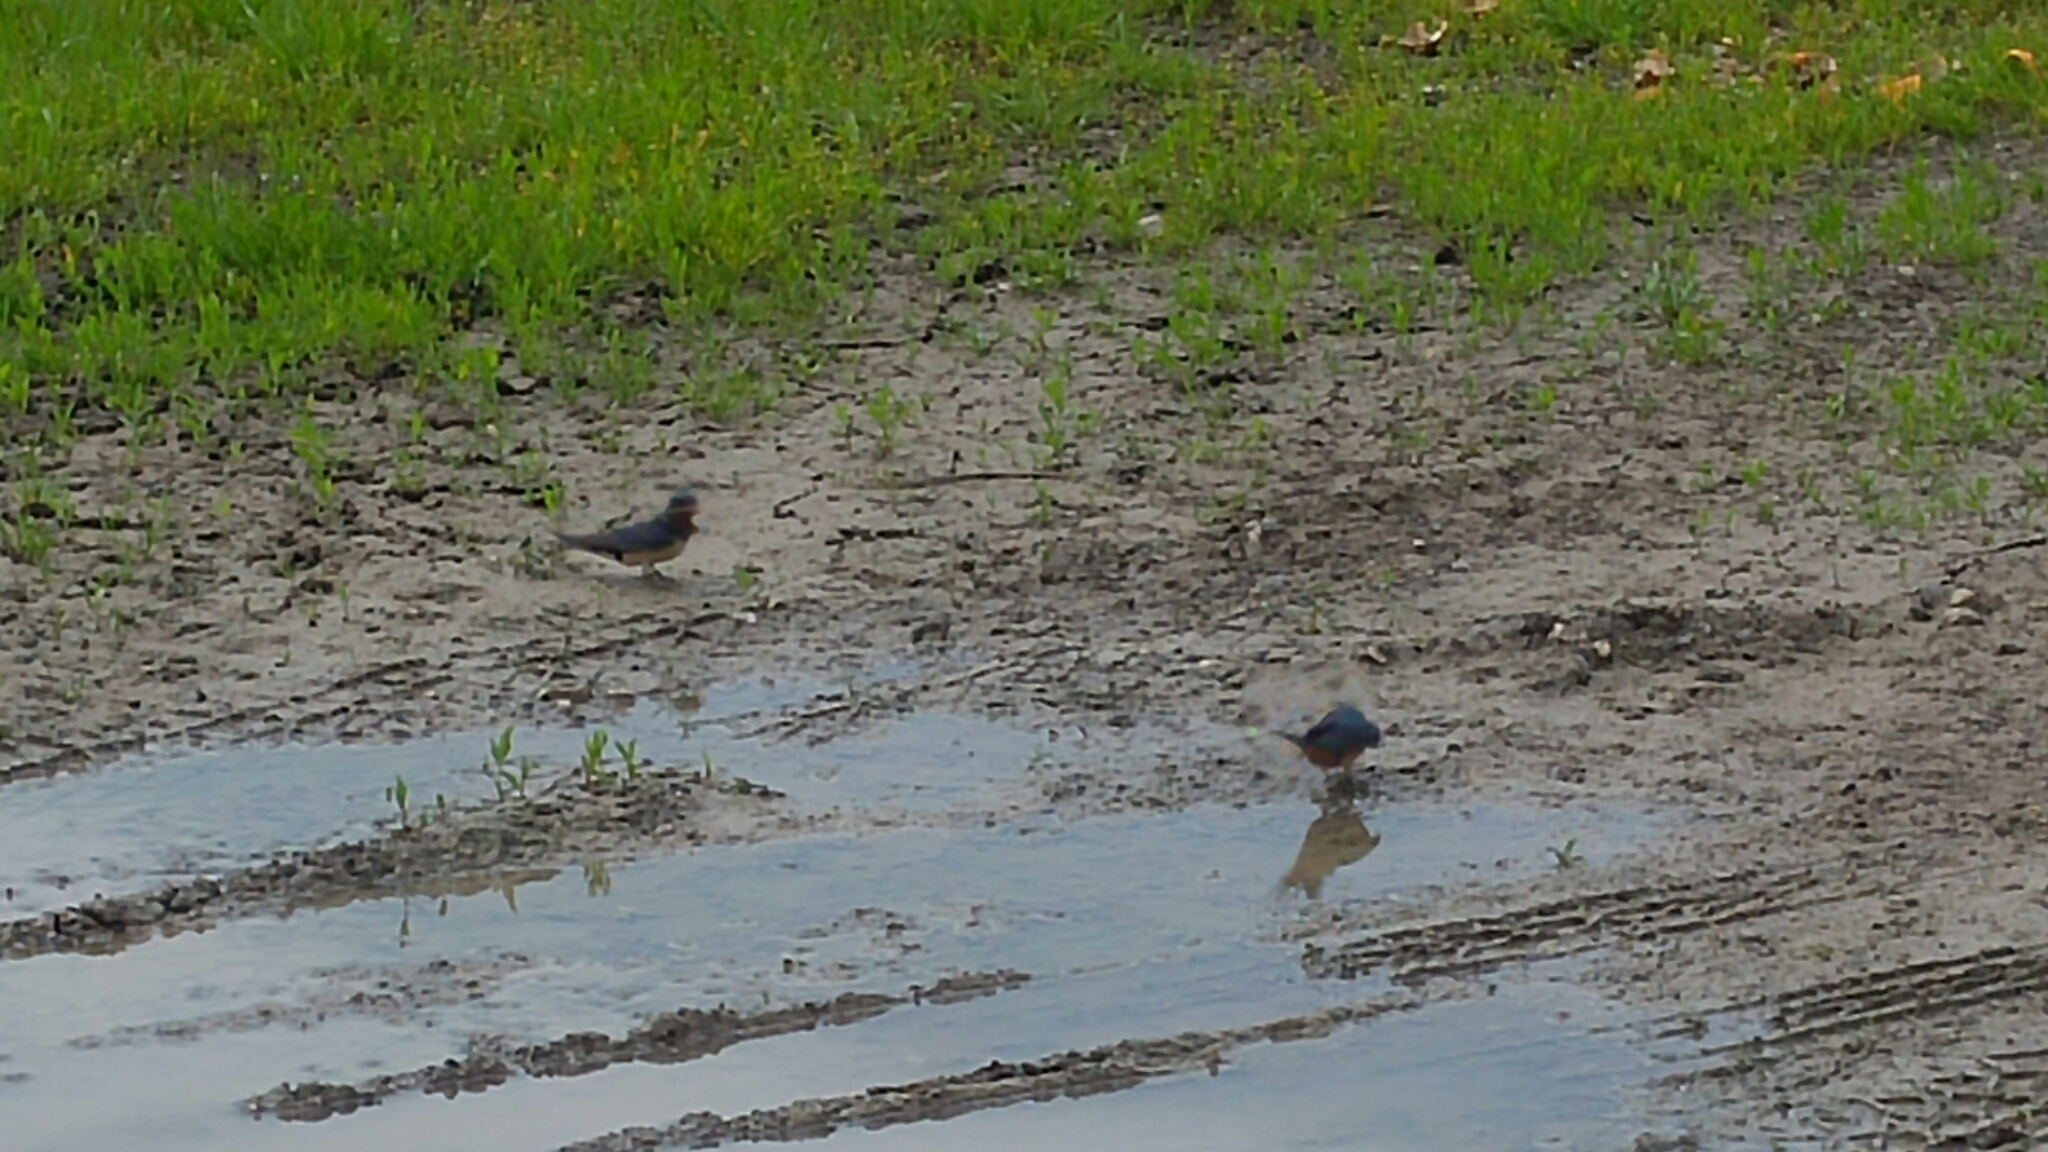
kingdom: Animalia
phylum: Chordata
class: Aves
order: Passeriformes
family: Hirundinidae
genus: Hirundo
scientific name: Hirundo rustica
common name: Barn swallow
